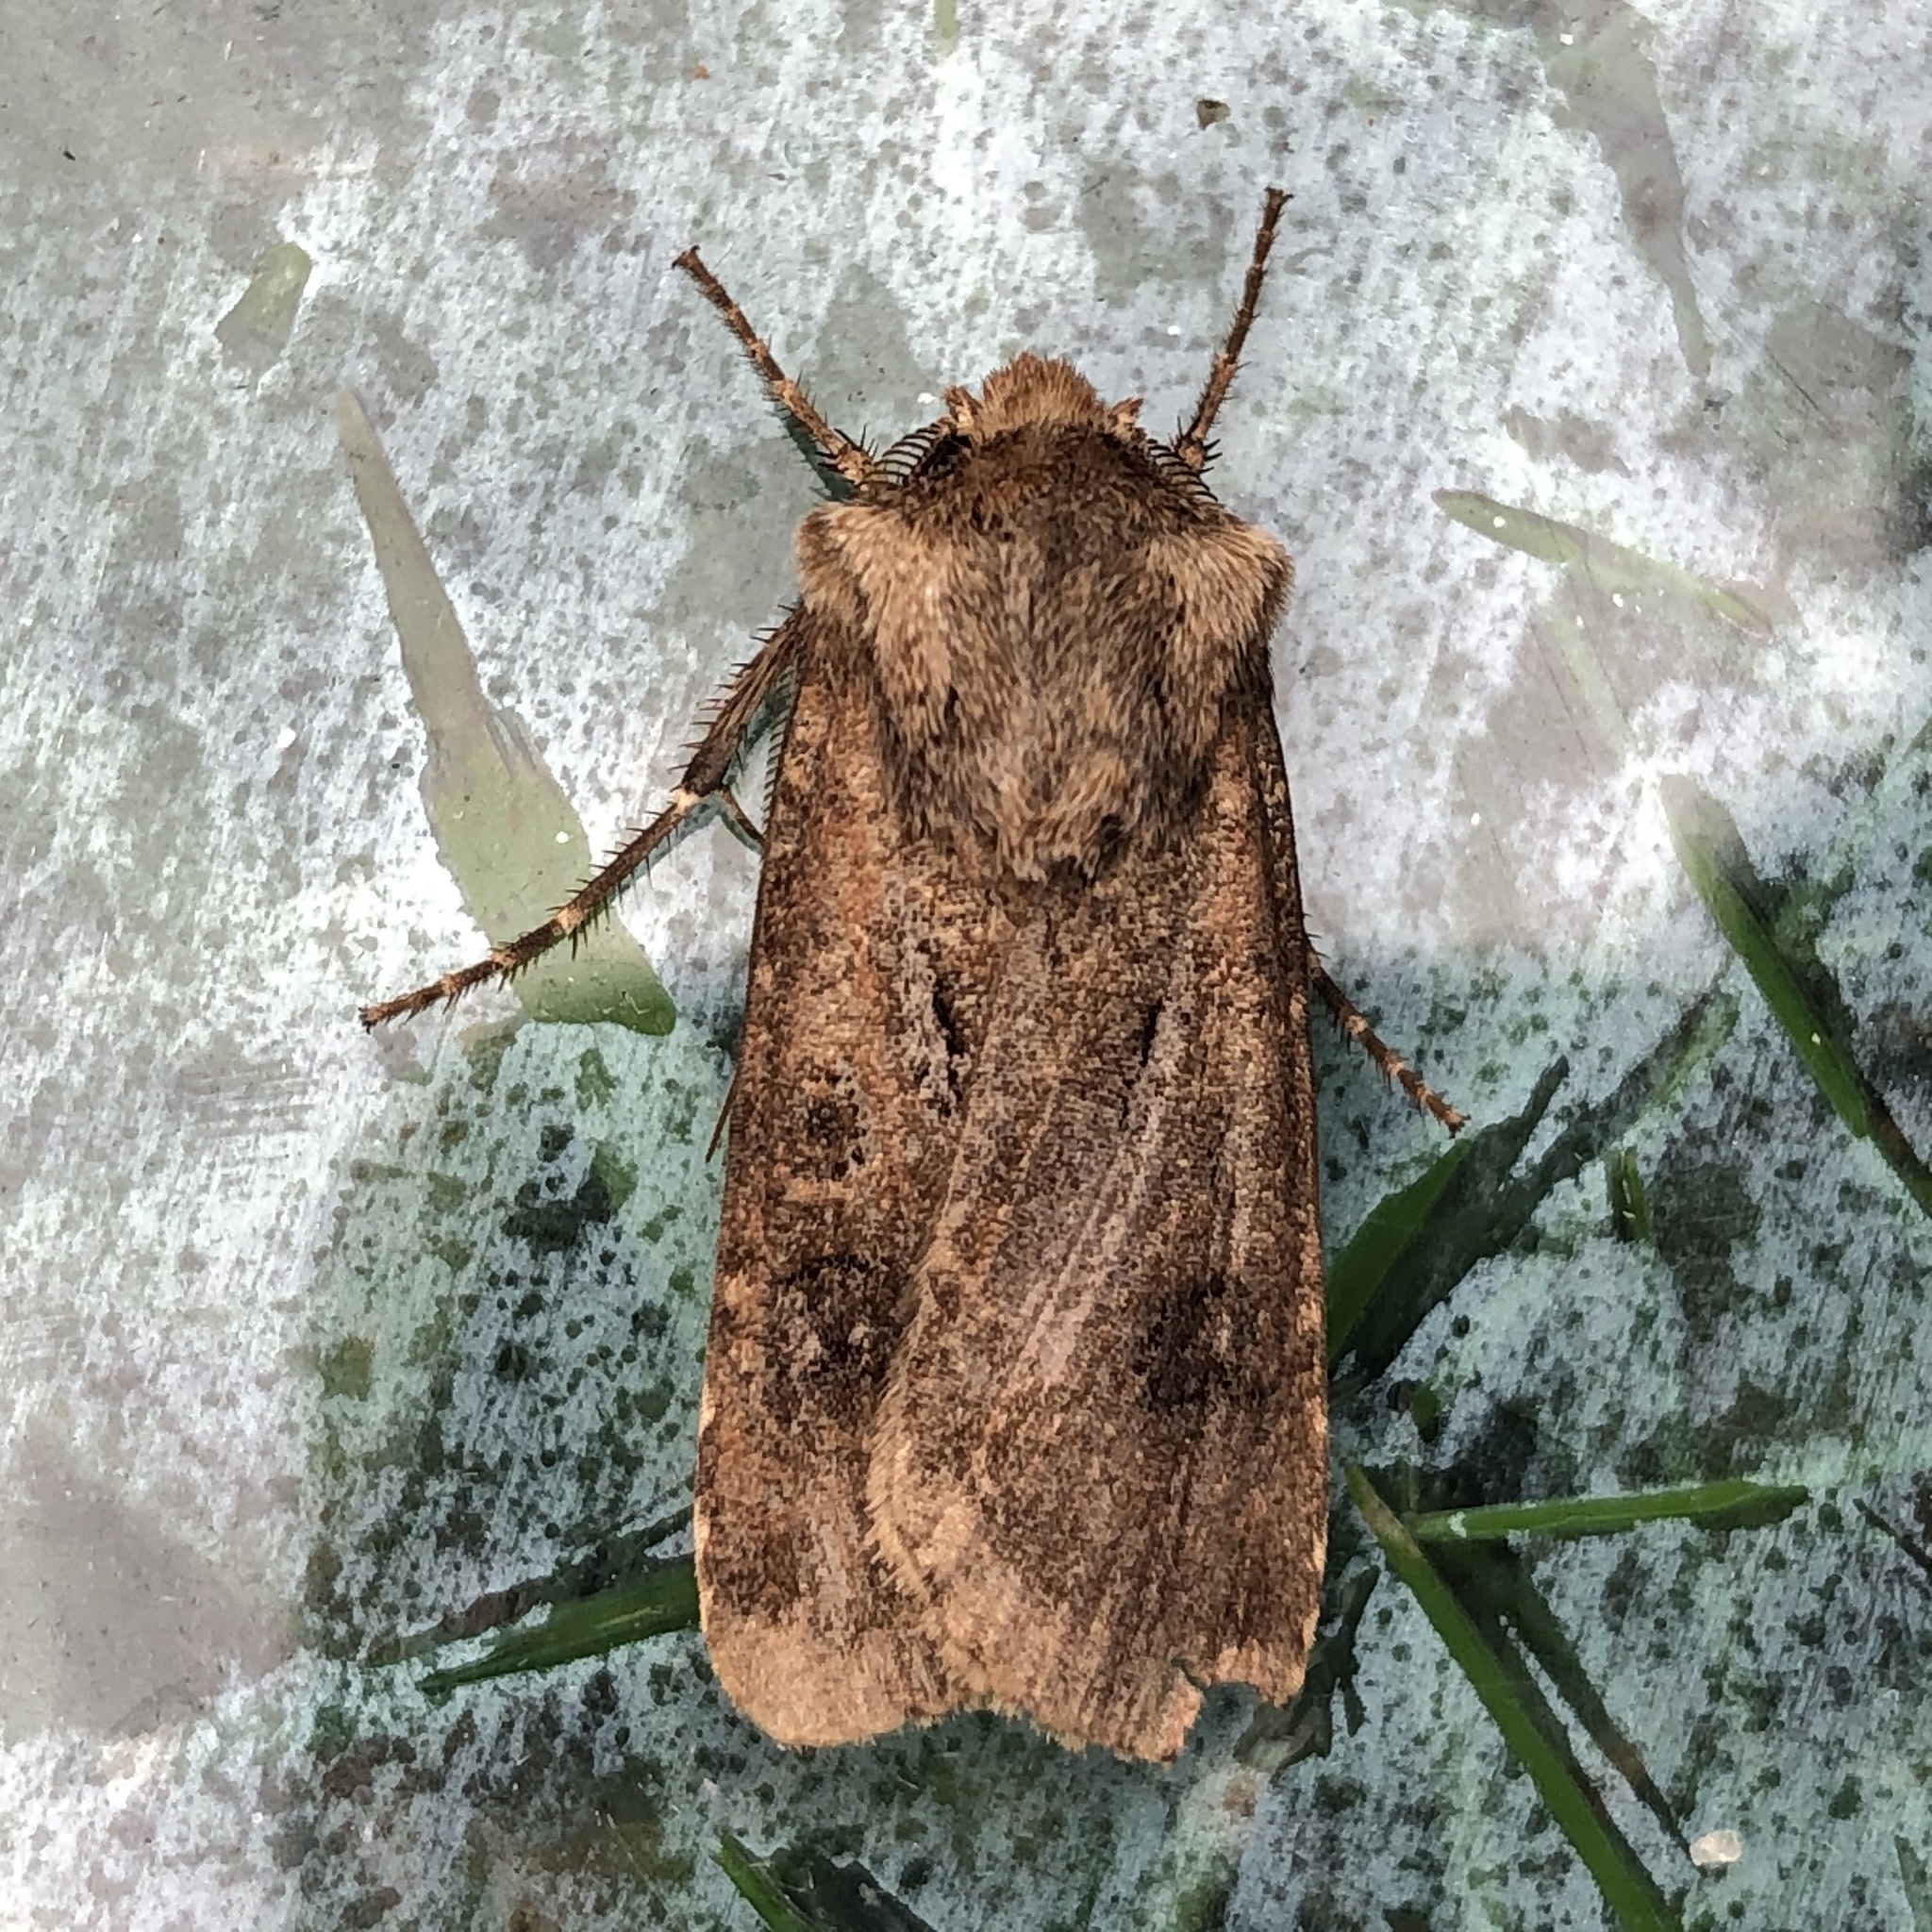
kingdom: Animalia
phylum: Arthropoda
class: Insecta
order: Lepidoptera
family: Noctuidae
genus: Agrotis
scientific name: Agrotis clavis
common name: Heart and club
